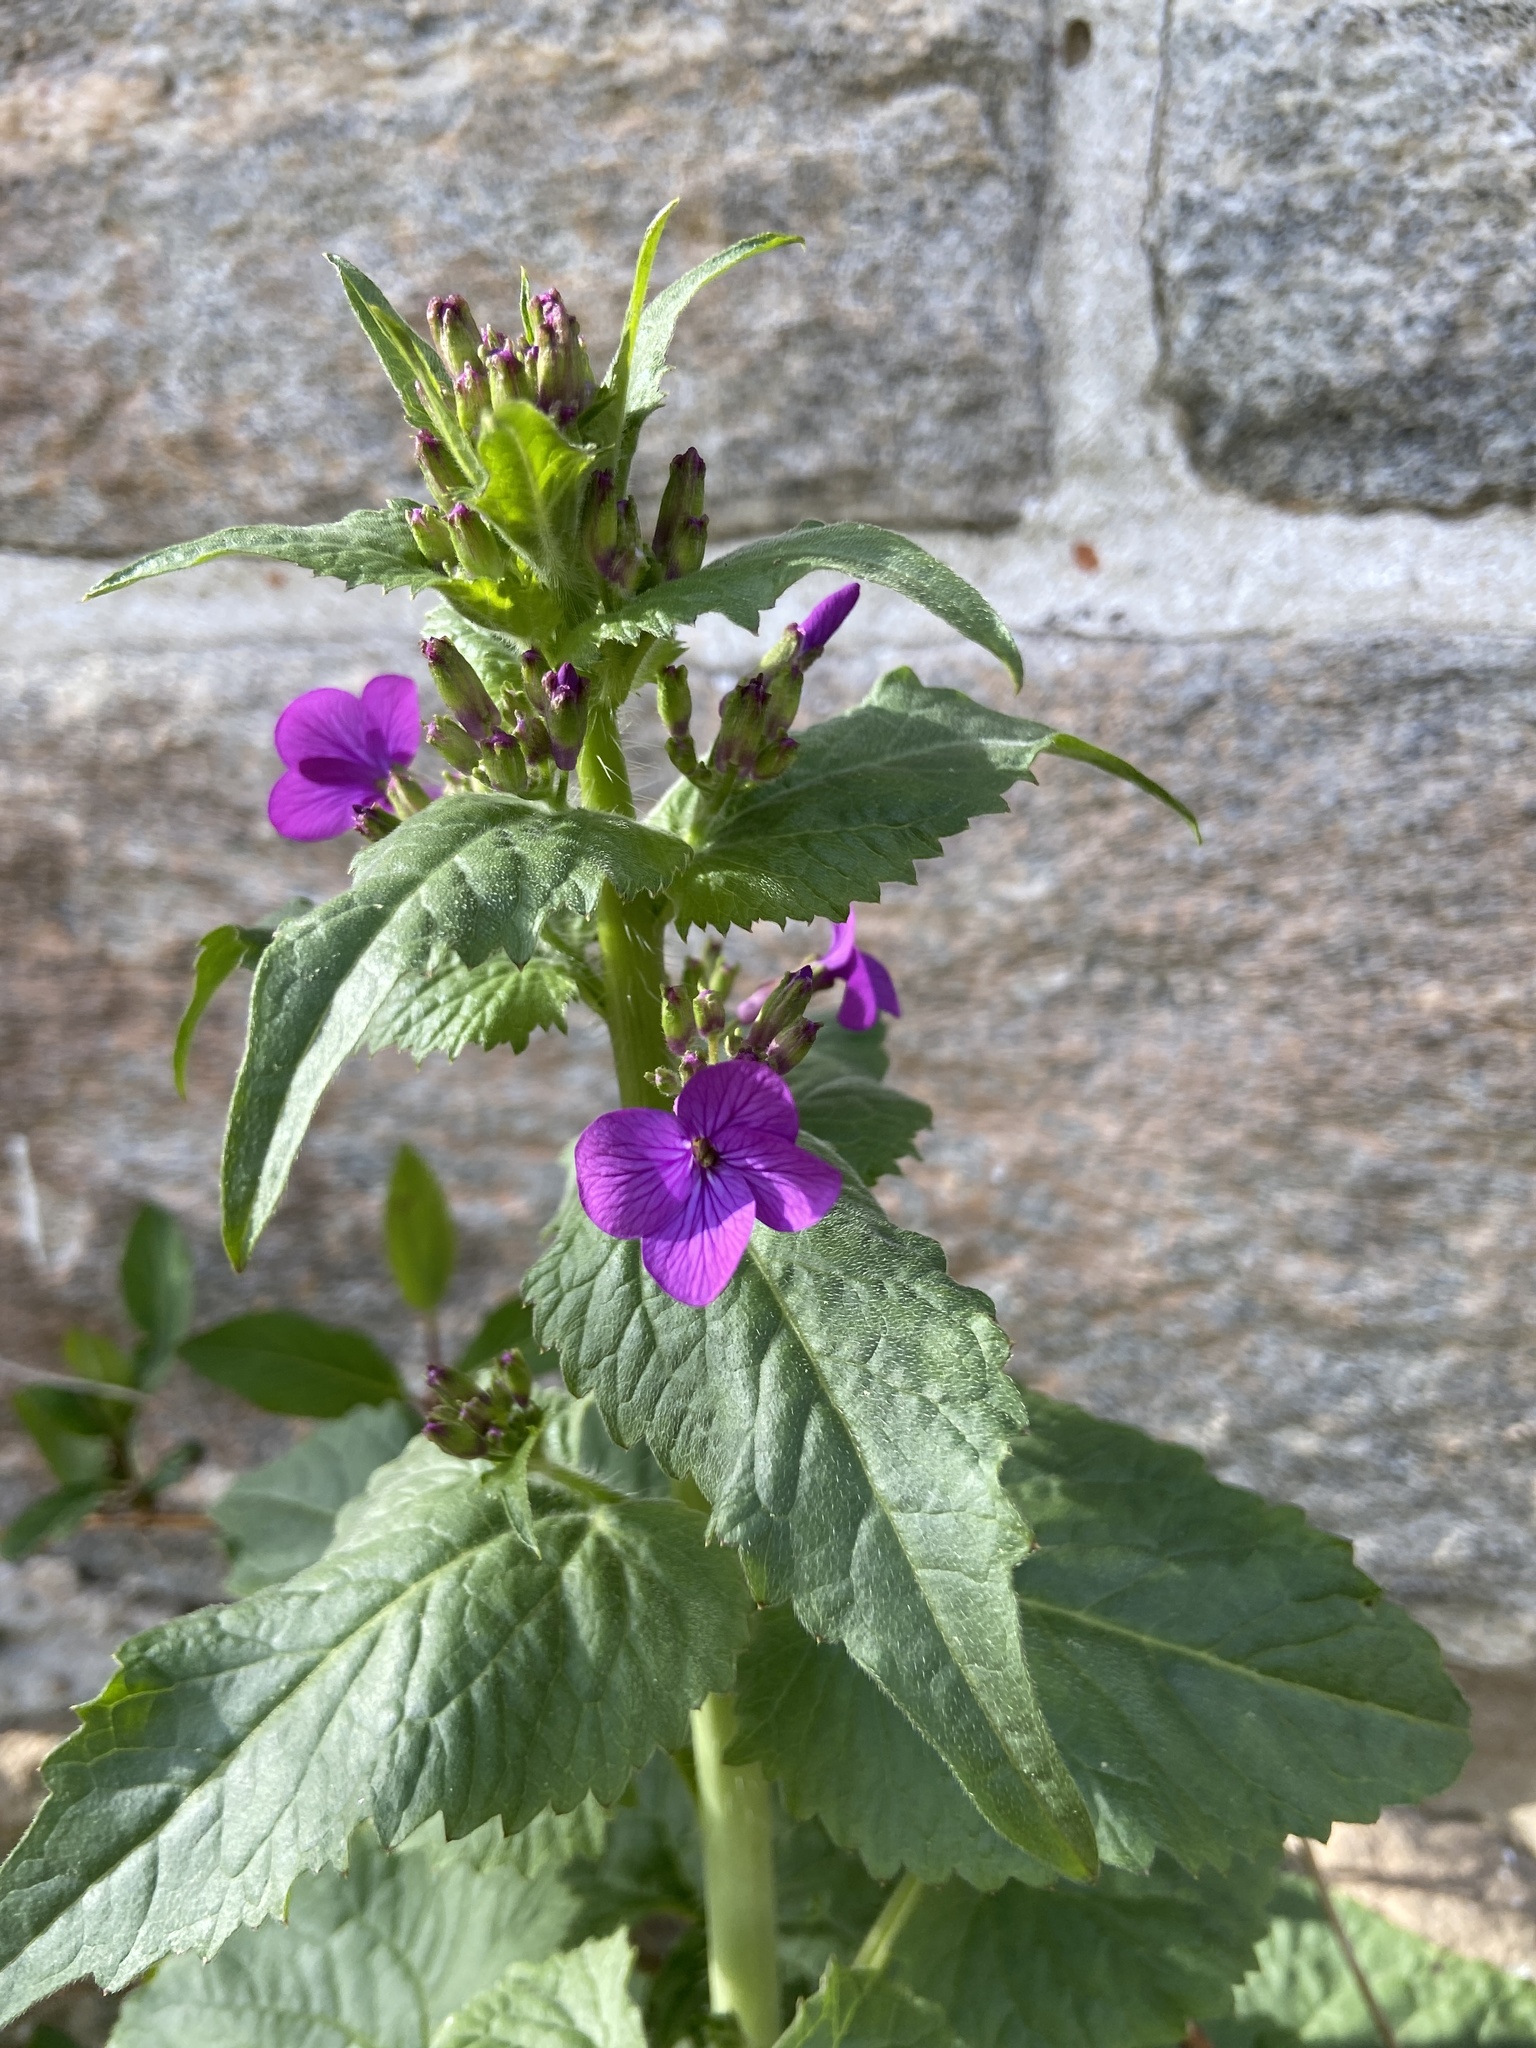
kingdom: Plantae
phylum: Tracheophyta
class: Magnoliopsida
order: Brassicales
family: Brassicaceae
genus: Lunaria
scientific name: Lunaria annua
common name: Honesty
